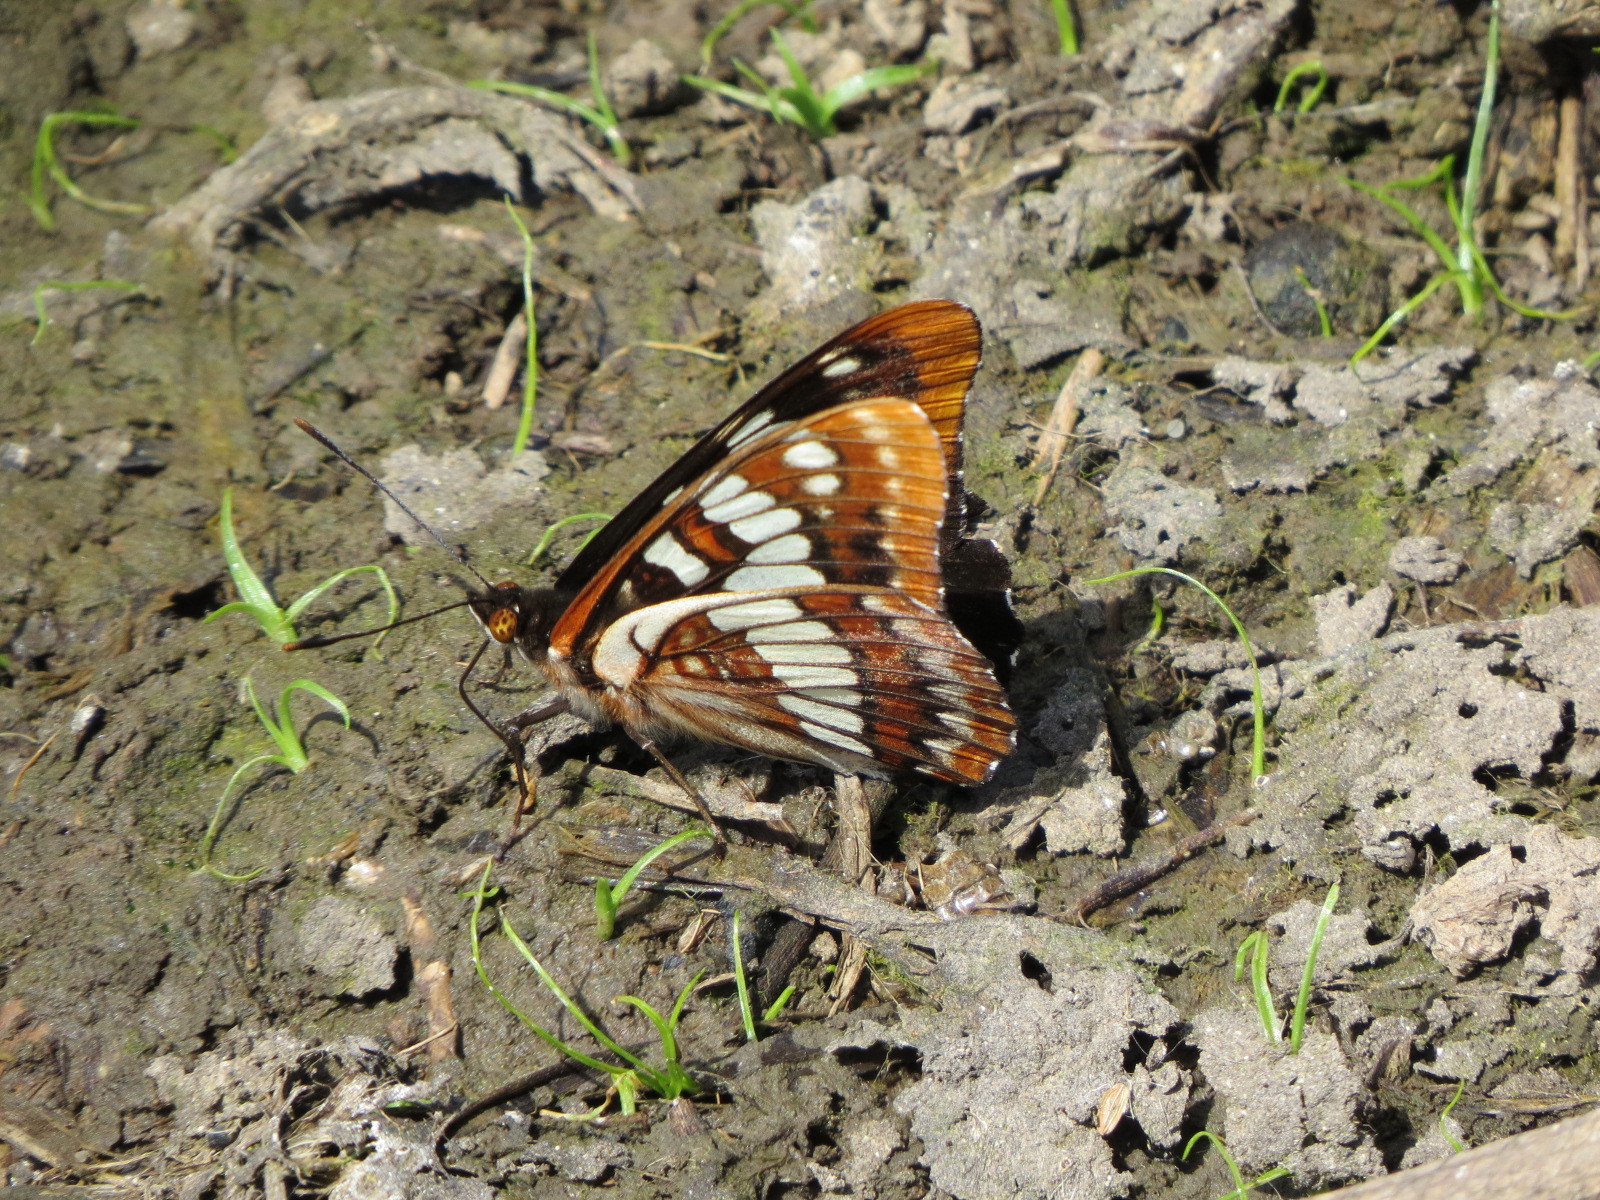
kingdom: Animalia
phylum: Arthropoda
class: Insecta
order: Lepidoptera
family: Nymphalidae
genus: Limenitis
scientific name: Limenitis lorquini
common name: Lorquin's admiral
